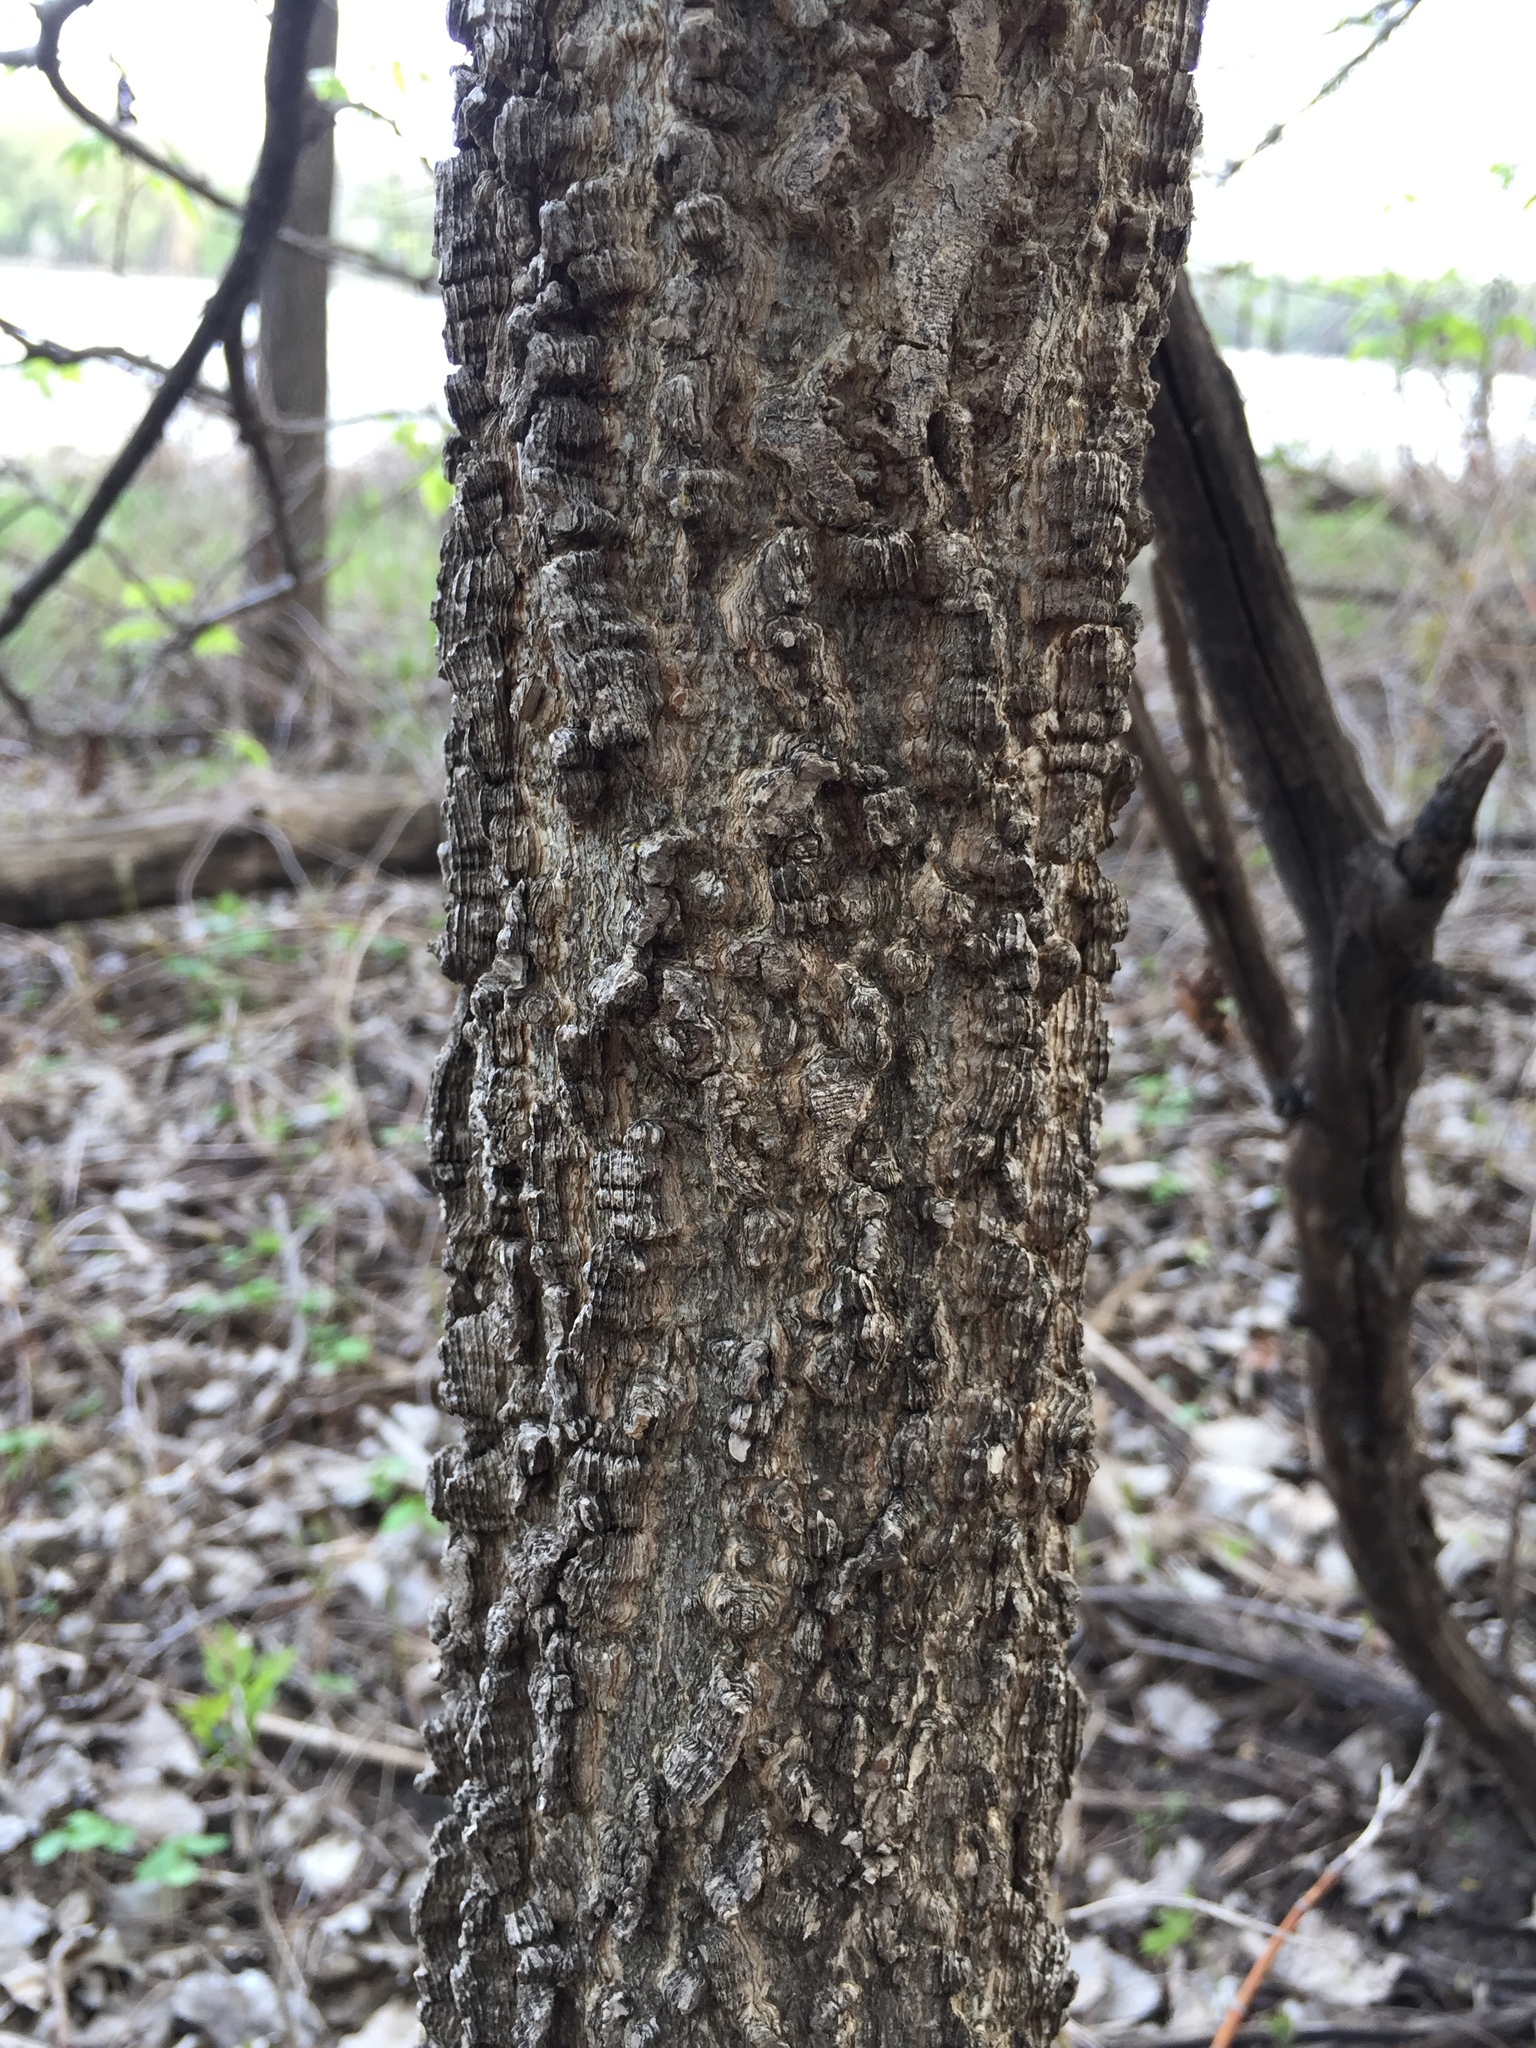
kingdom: Plantae
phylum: Tracheophyta
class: Magnoliopsida
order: Rosales
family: Cannabaceae
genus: Celtis
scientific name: Celtis occidentalis
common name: Common hackberry
